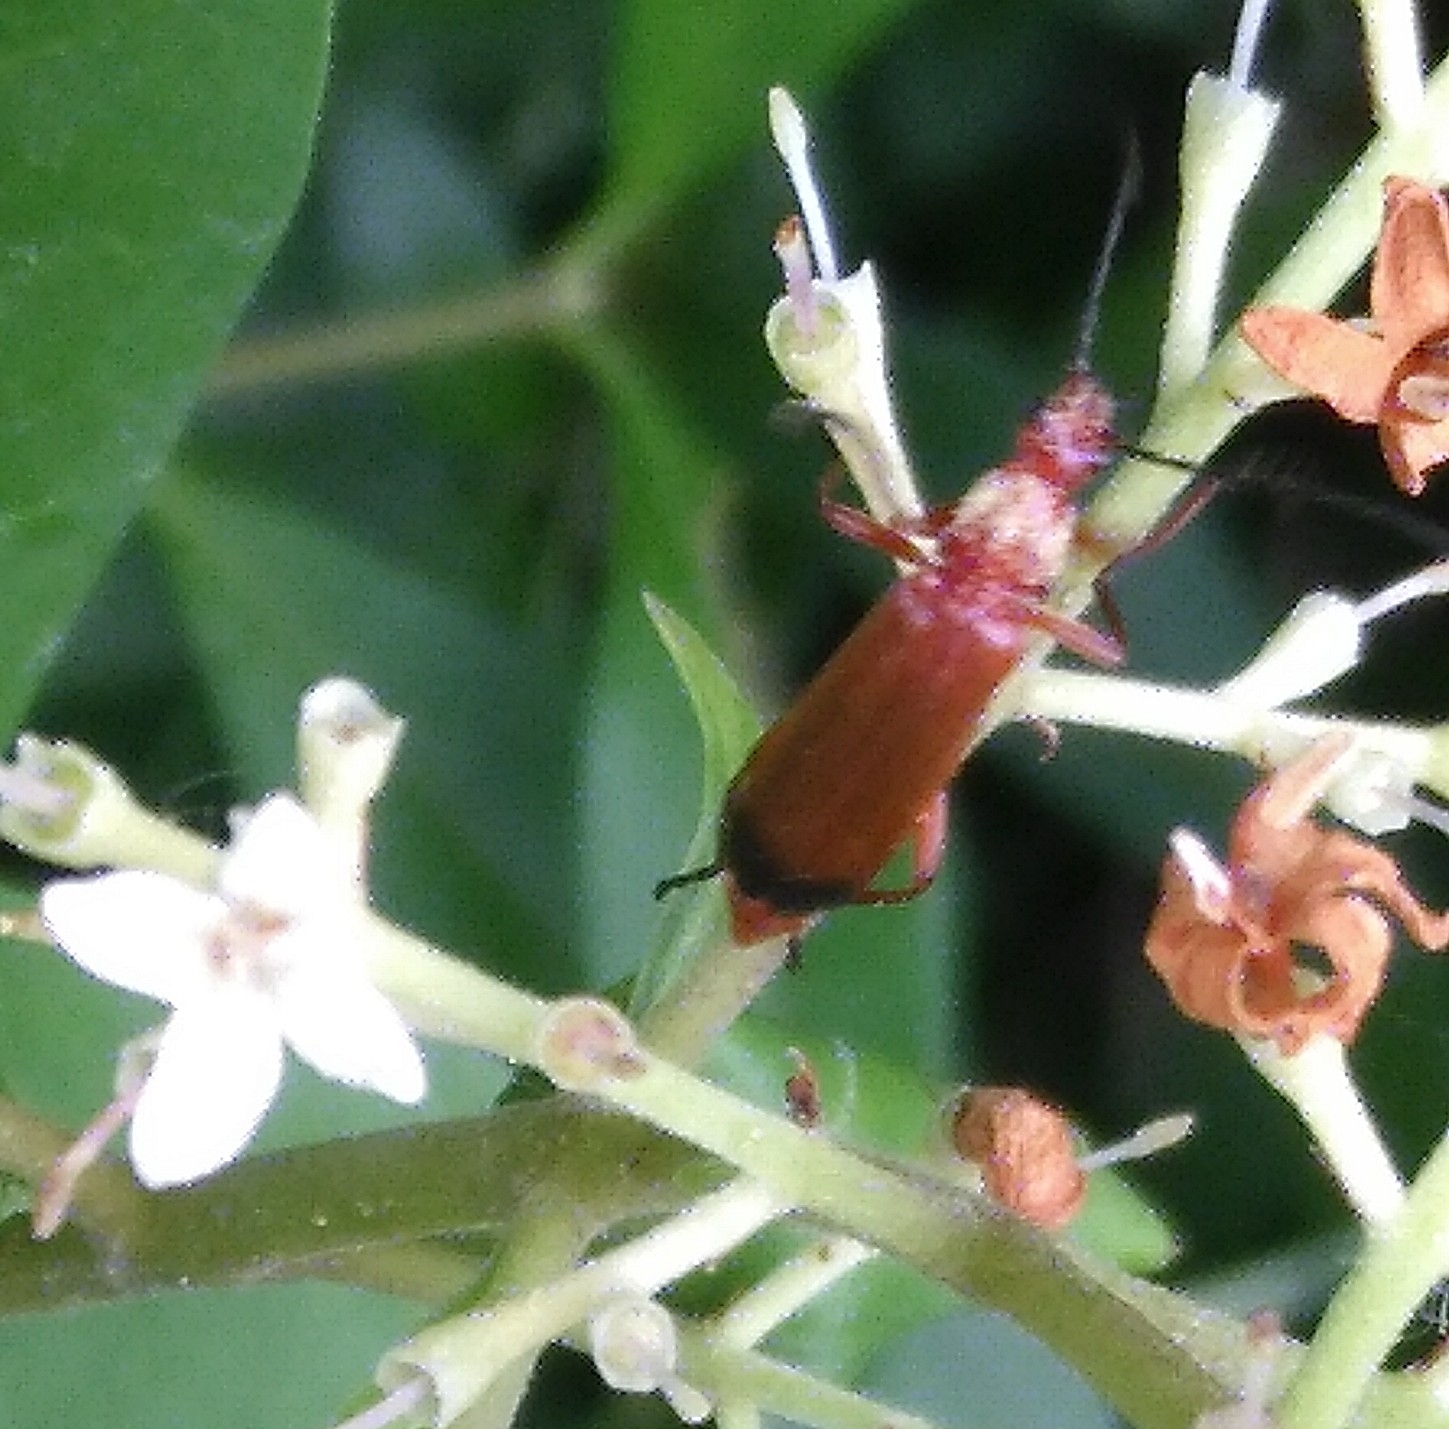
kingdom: Animalia
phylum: Arthropoda
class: Insecta
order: Coleoptera
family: Cantharidae
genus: Rhagonycha
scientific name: Rhagonycha fulva
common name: Common red soldier beetle
